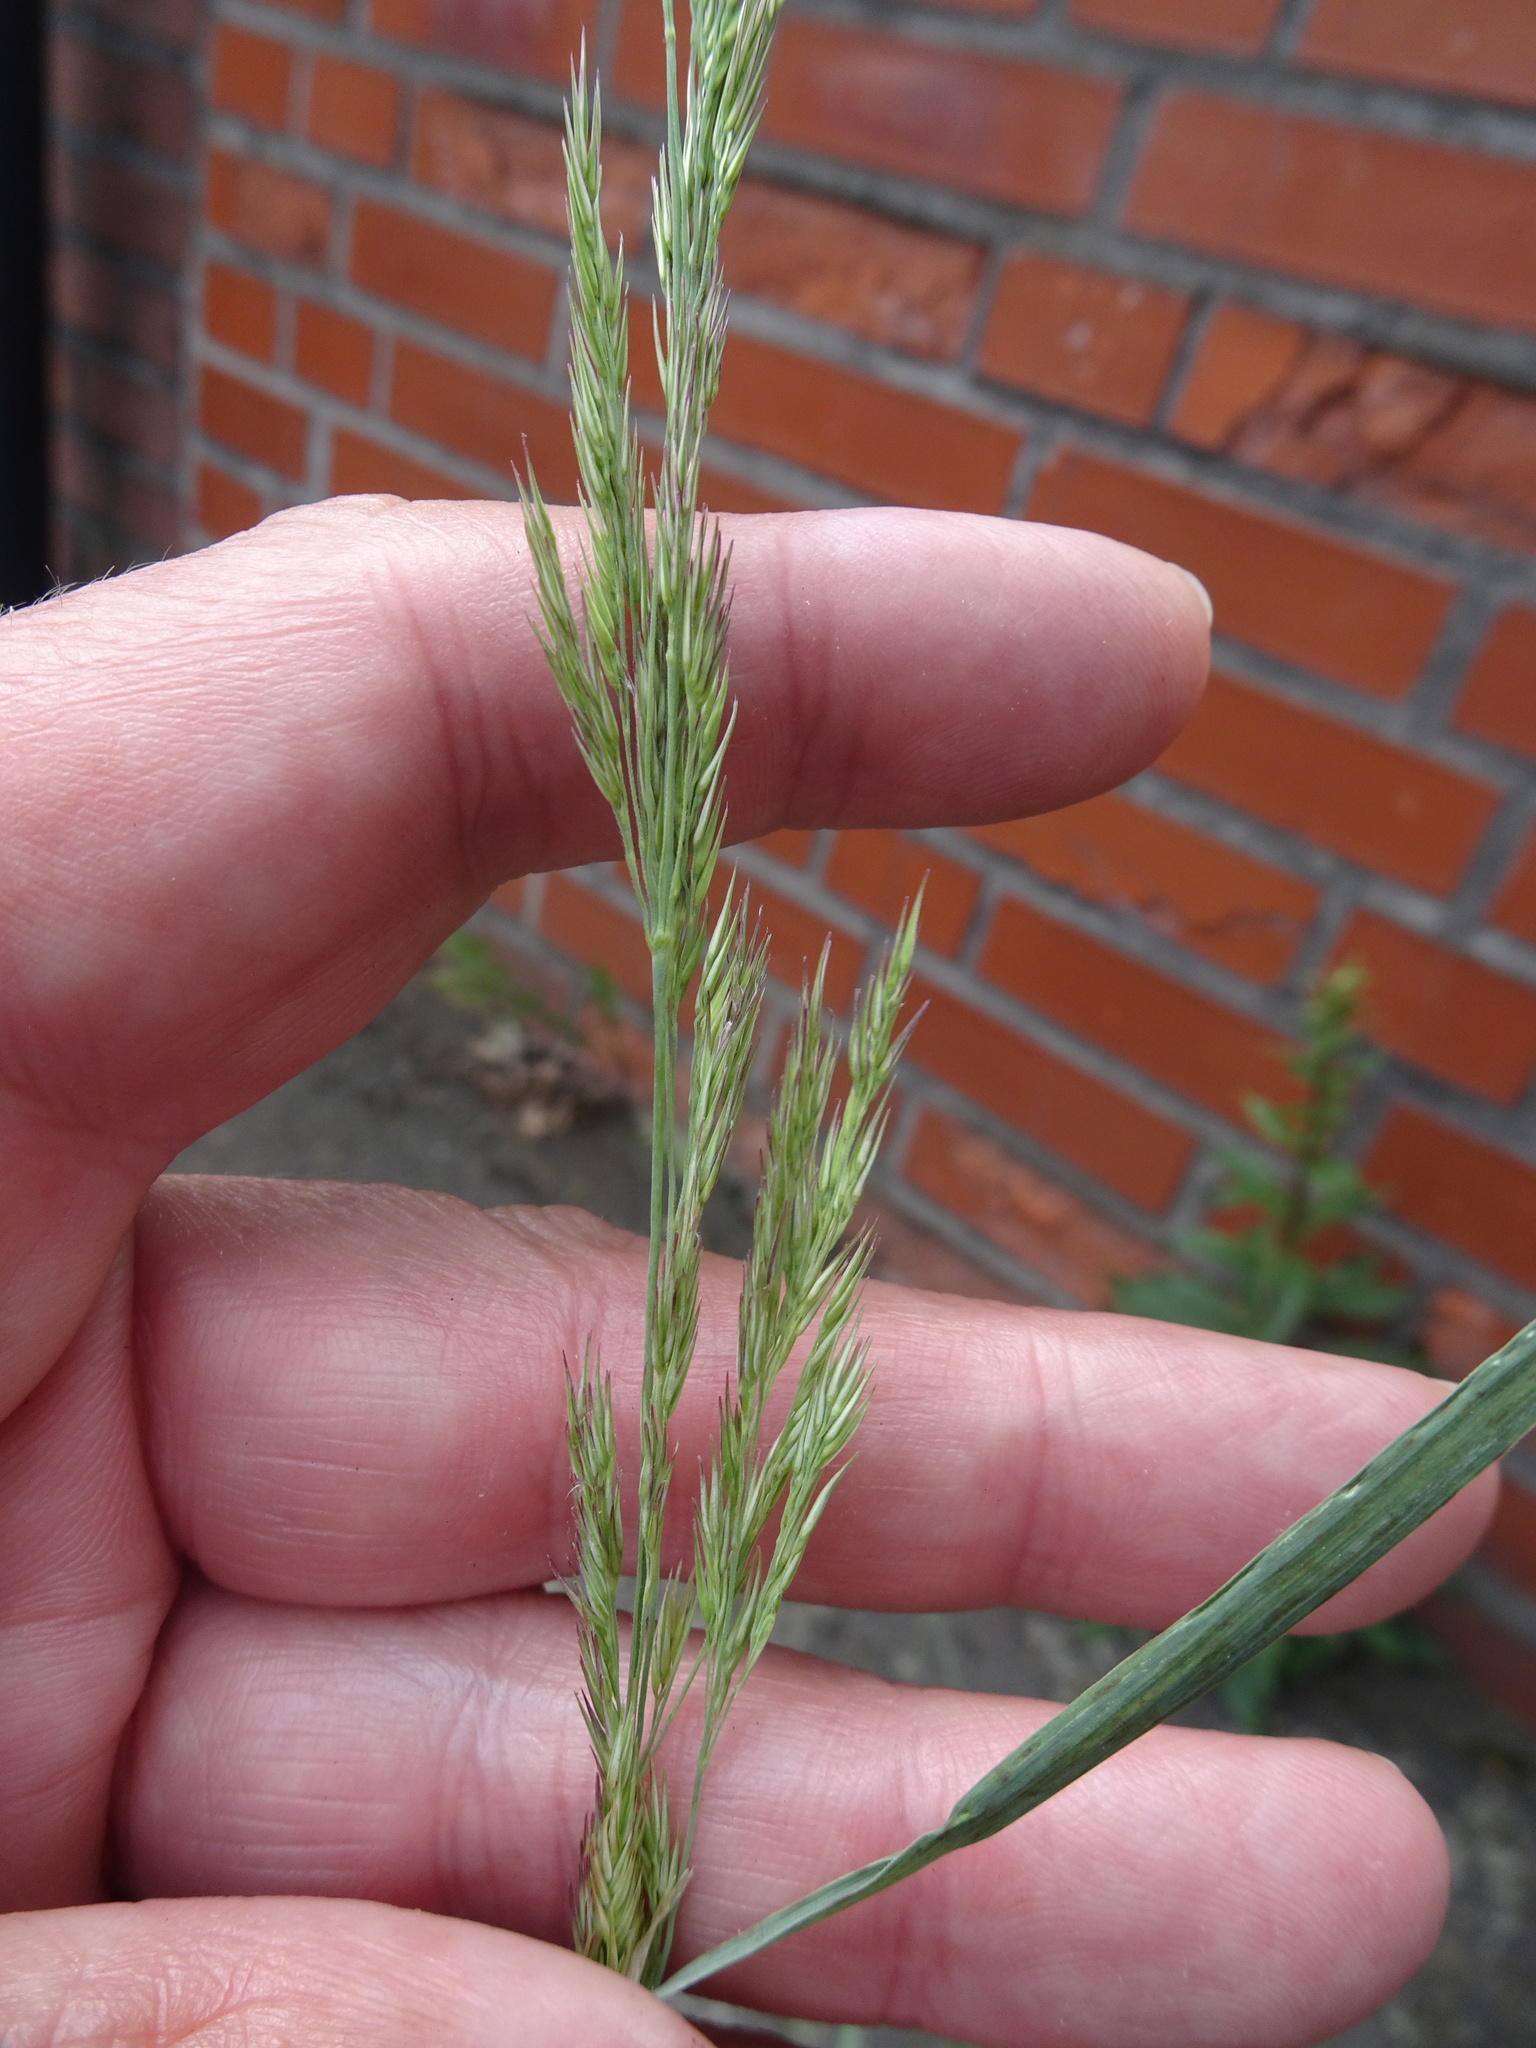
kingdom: Plantae
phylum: Tracheophyta
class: Liliopsida
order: Poales
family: Poaceae
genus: Calamagrostis
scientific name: Calamagrostis epigejos
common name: Wood small-reed
